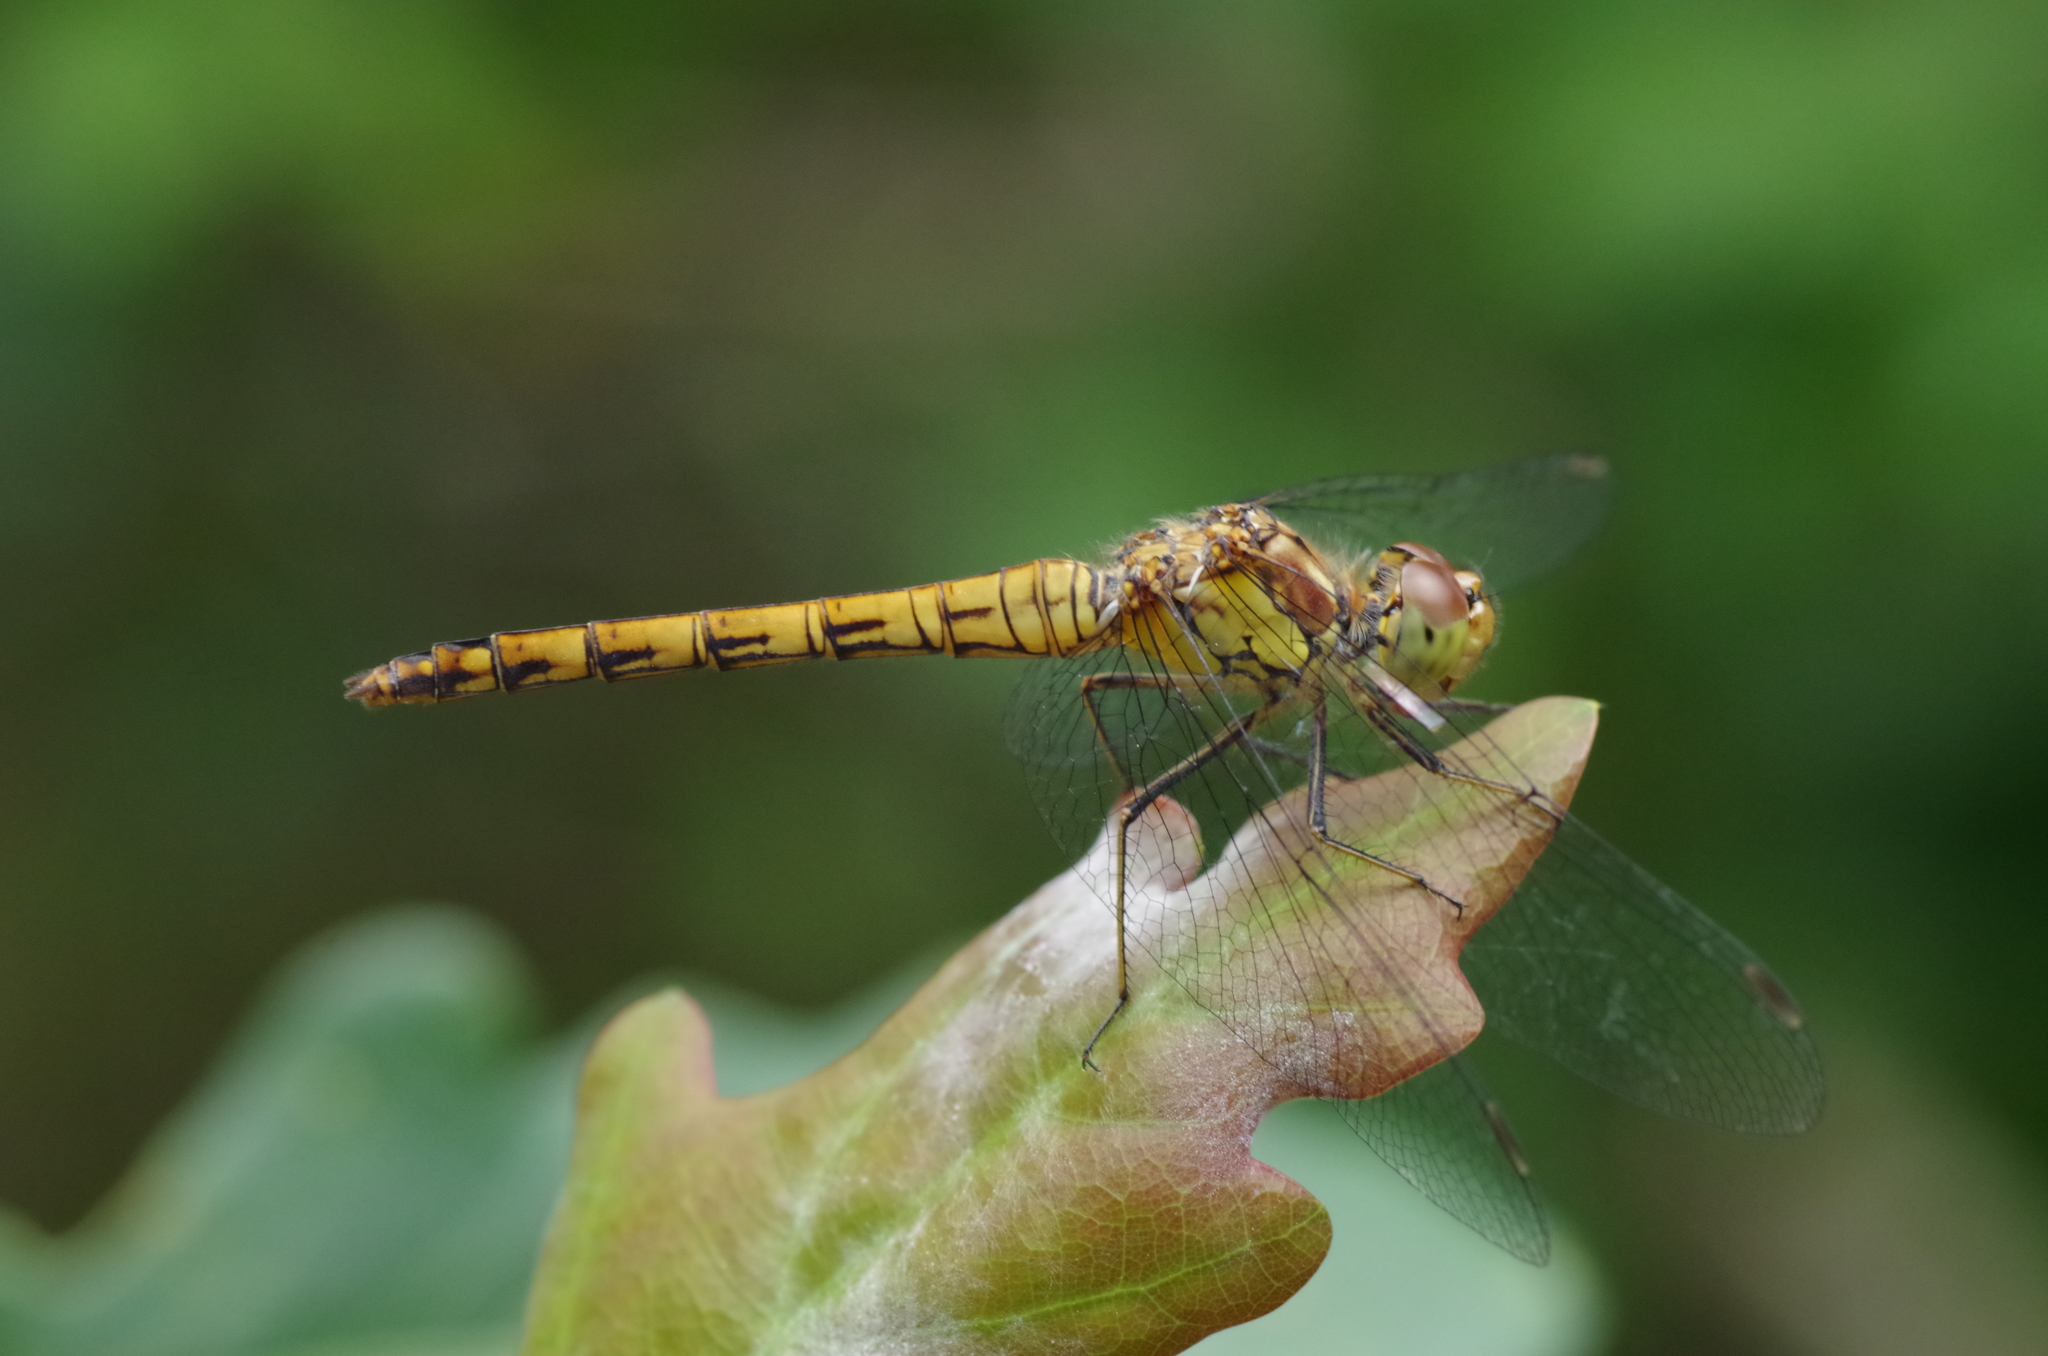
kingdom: Animalia
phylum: Arthropoda
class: Insecta
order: Odonata
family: Libellulidae
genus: Sympetrum
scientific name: Sympetrum striolatum
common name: Common darter
